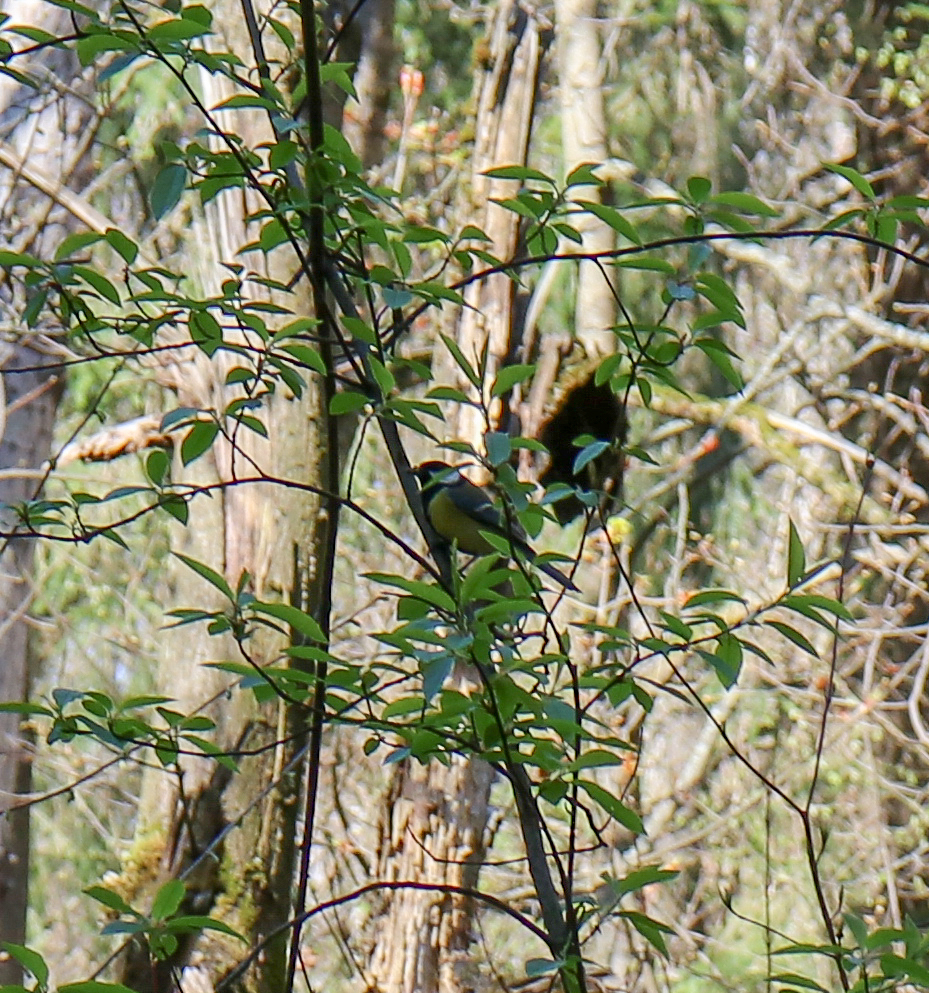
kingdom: Animalia
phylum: Chordata
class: Aves
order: Passeriformes
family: Paridae
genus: Parus
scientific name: Parus major
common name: Great tit
